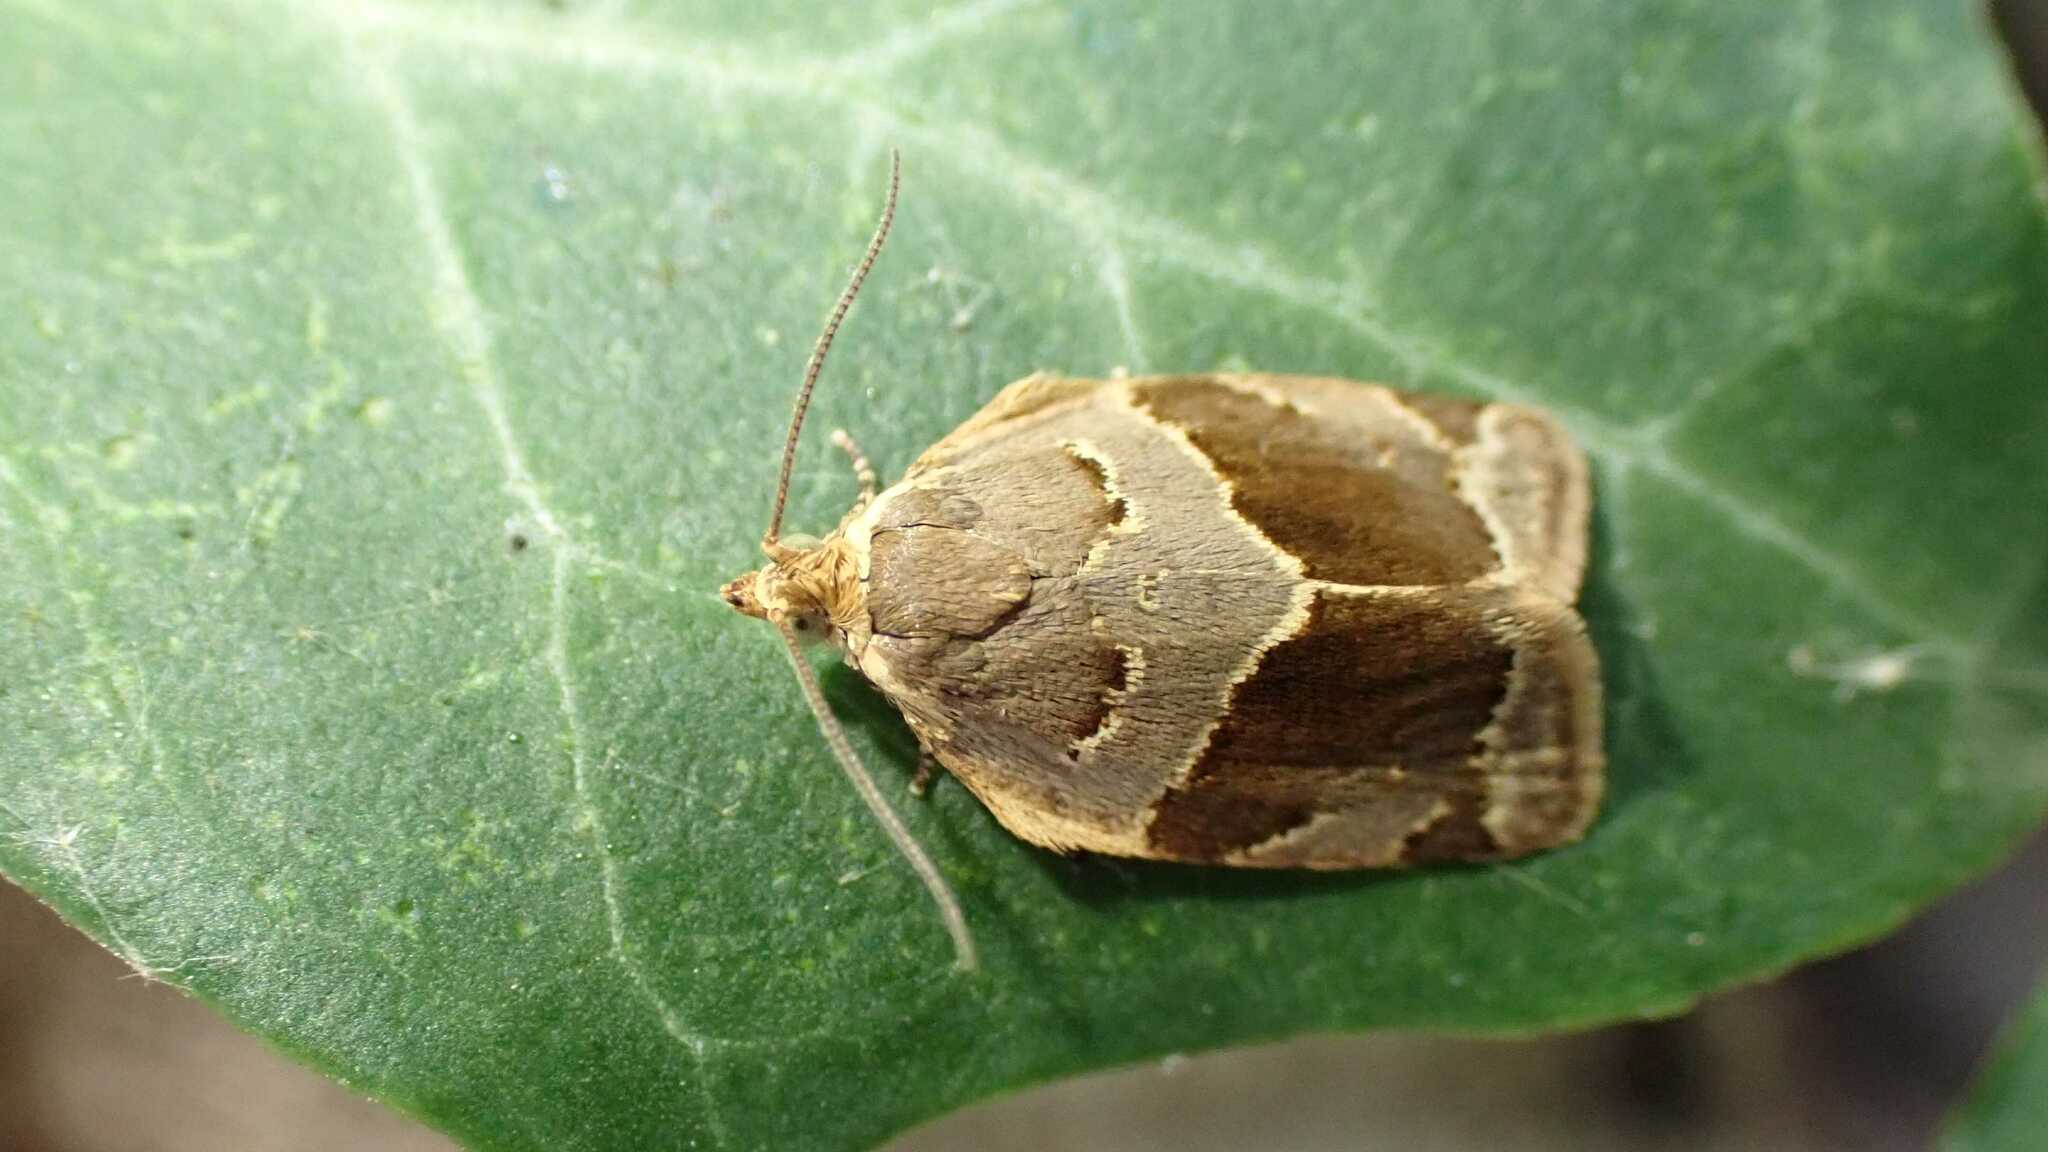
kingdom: Animalia
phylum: Arthropoda
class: Insecta
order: Lepidoptera
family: Tortricidae
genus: Clepsis
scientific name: Clepsis dumicolana
